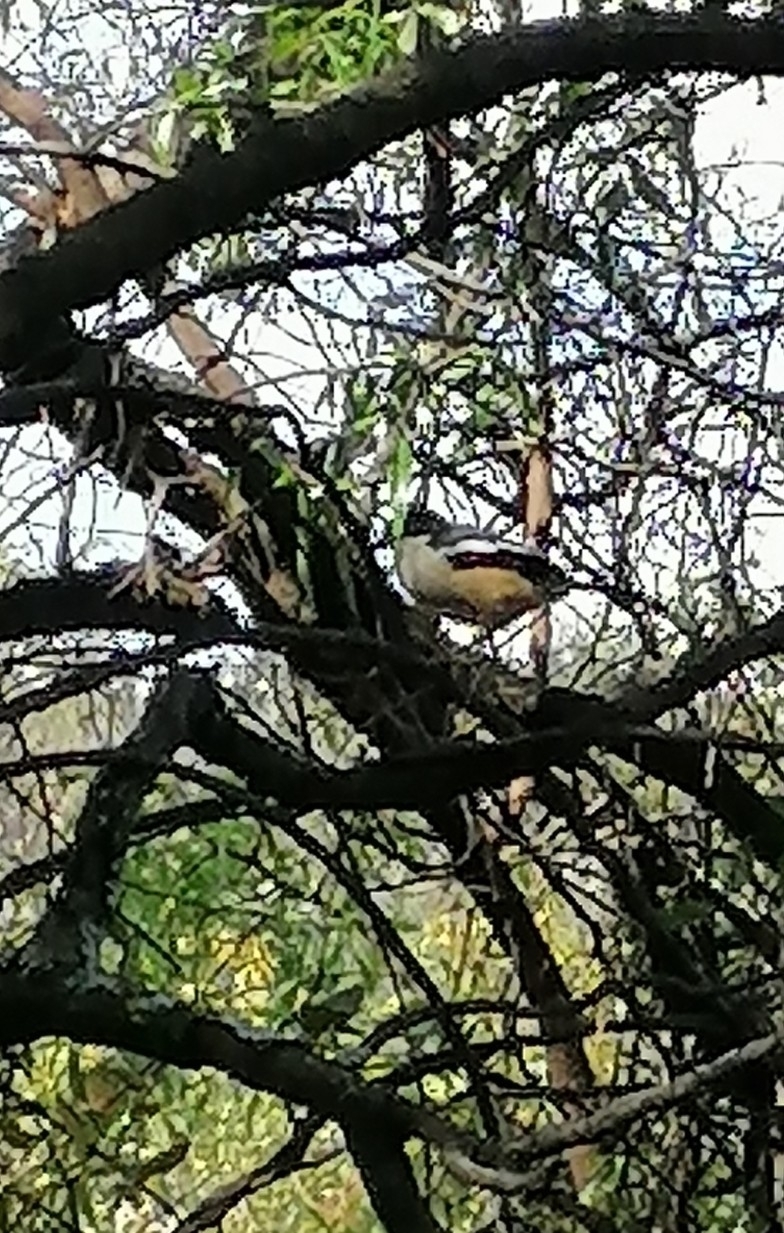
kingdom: Animalia
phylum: Chordata
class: Aves
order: Passeriformes
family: Malaconotidae
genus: Laniarius
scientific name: Laniarius ferrugineus
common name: Southern boubou
